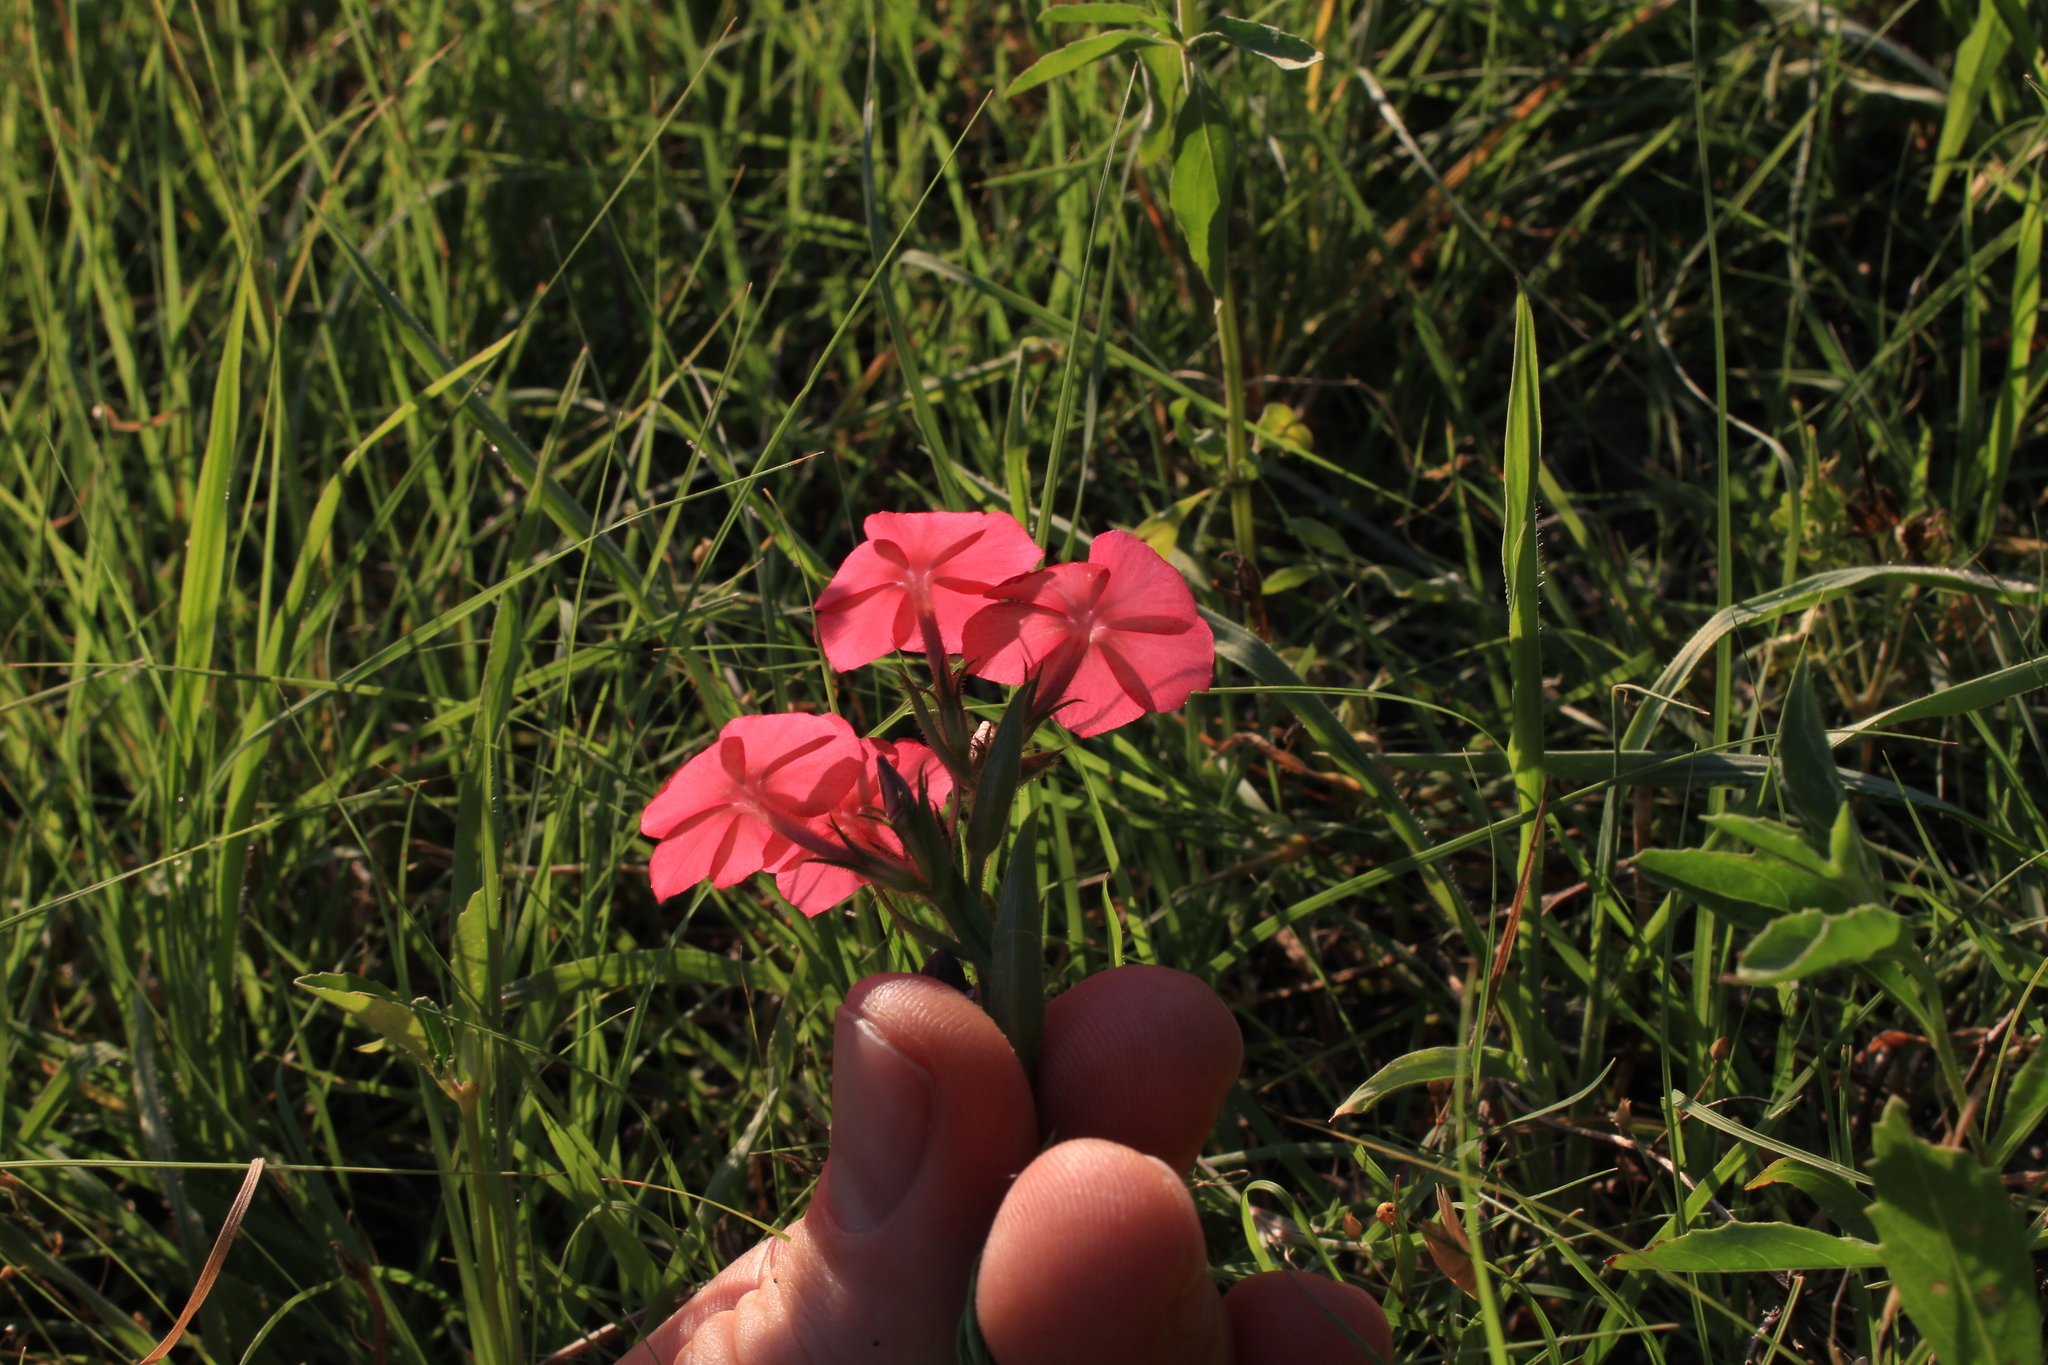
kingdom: Plantae
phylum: Tracheophyta
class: Magnoliopsida
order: Ericales
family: Polemoniaceae
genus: Phlox
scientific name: Phlox drummondii
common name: Drummond's phlox
